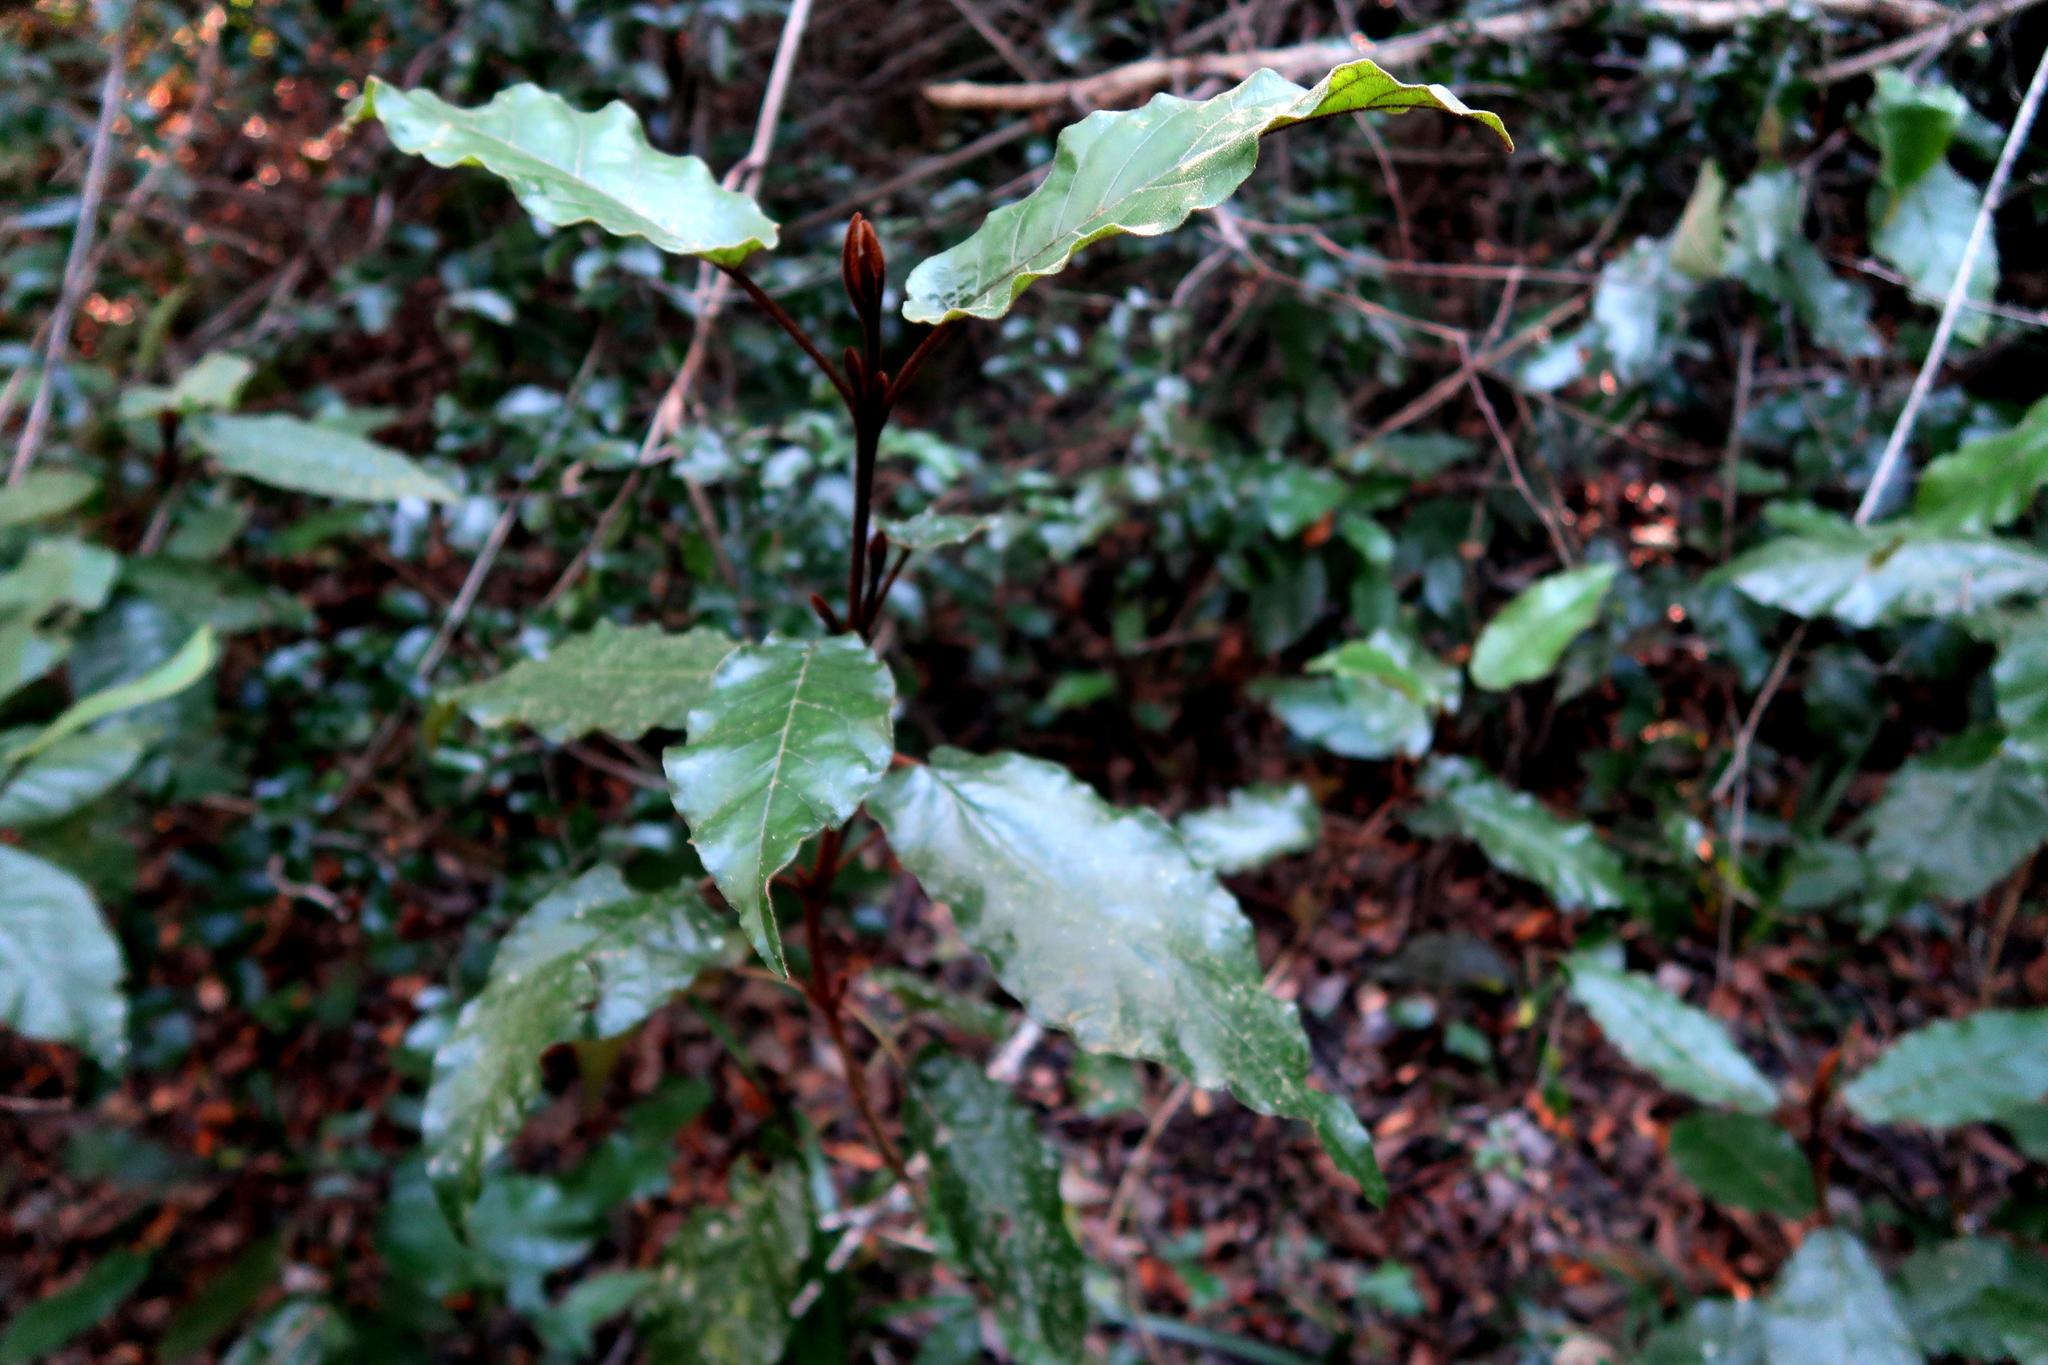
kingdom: Plantae
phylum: Tracheophyta
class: Magnoliopsida
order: Saxifragales
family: Hamamelidaceae
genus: Trichocladus
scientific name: Trichocladus crinitus
